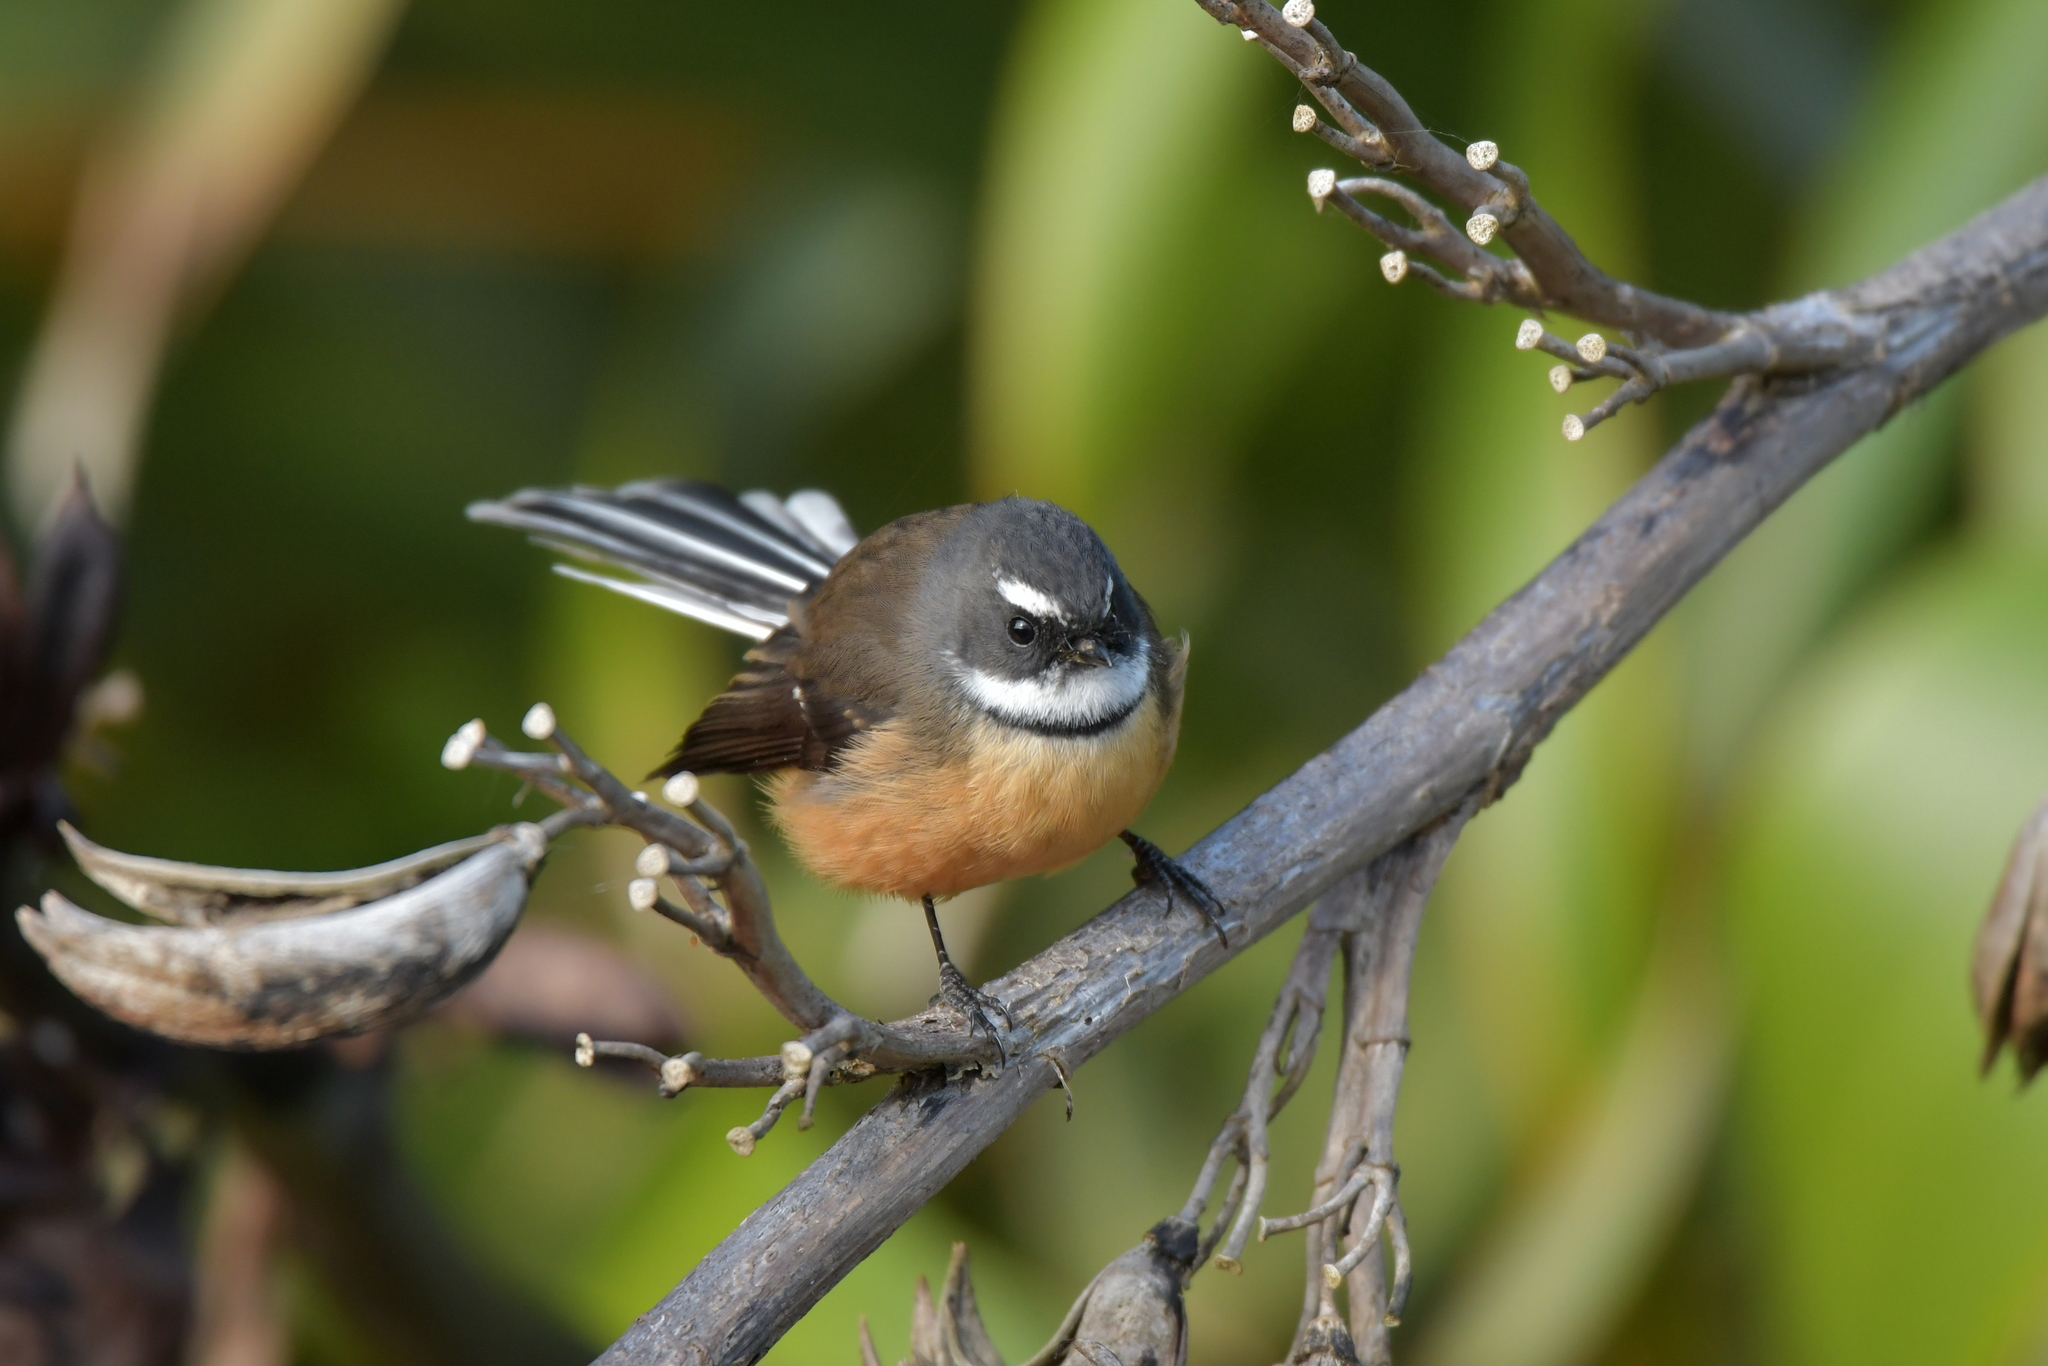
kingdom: Animalia
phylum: Chordata
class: Aves
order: Passeriformes
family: Rhipiduridae
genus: Rhipidura
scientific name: Rhipidura fuliginosa
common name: New zealand fantail
